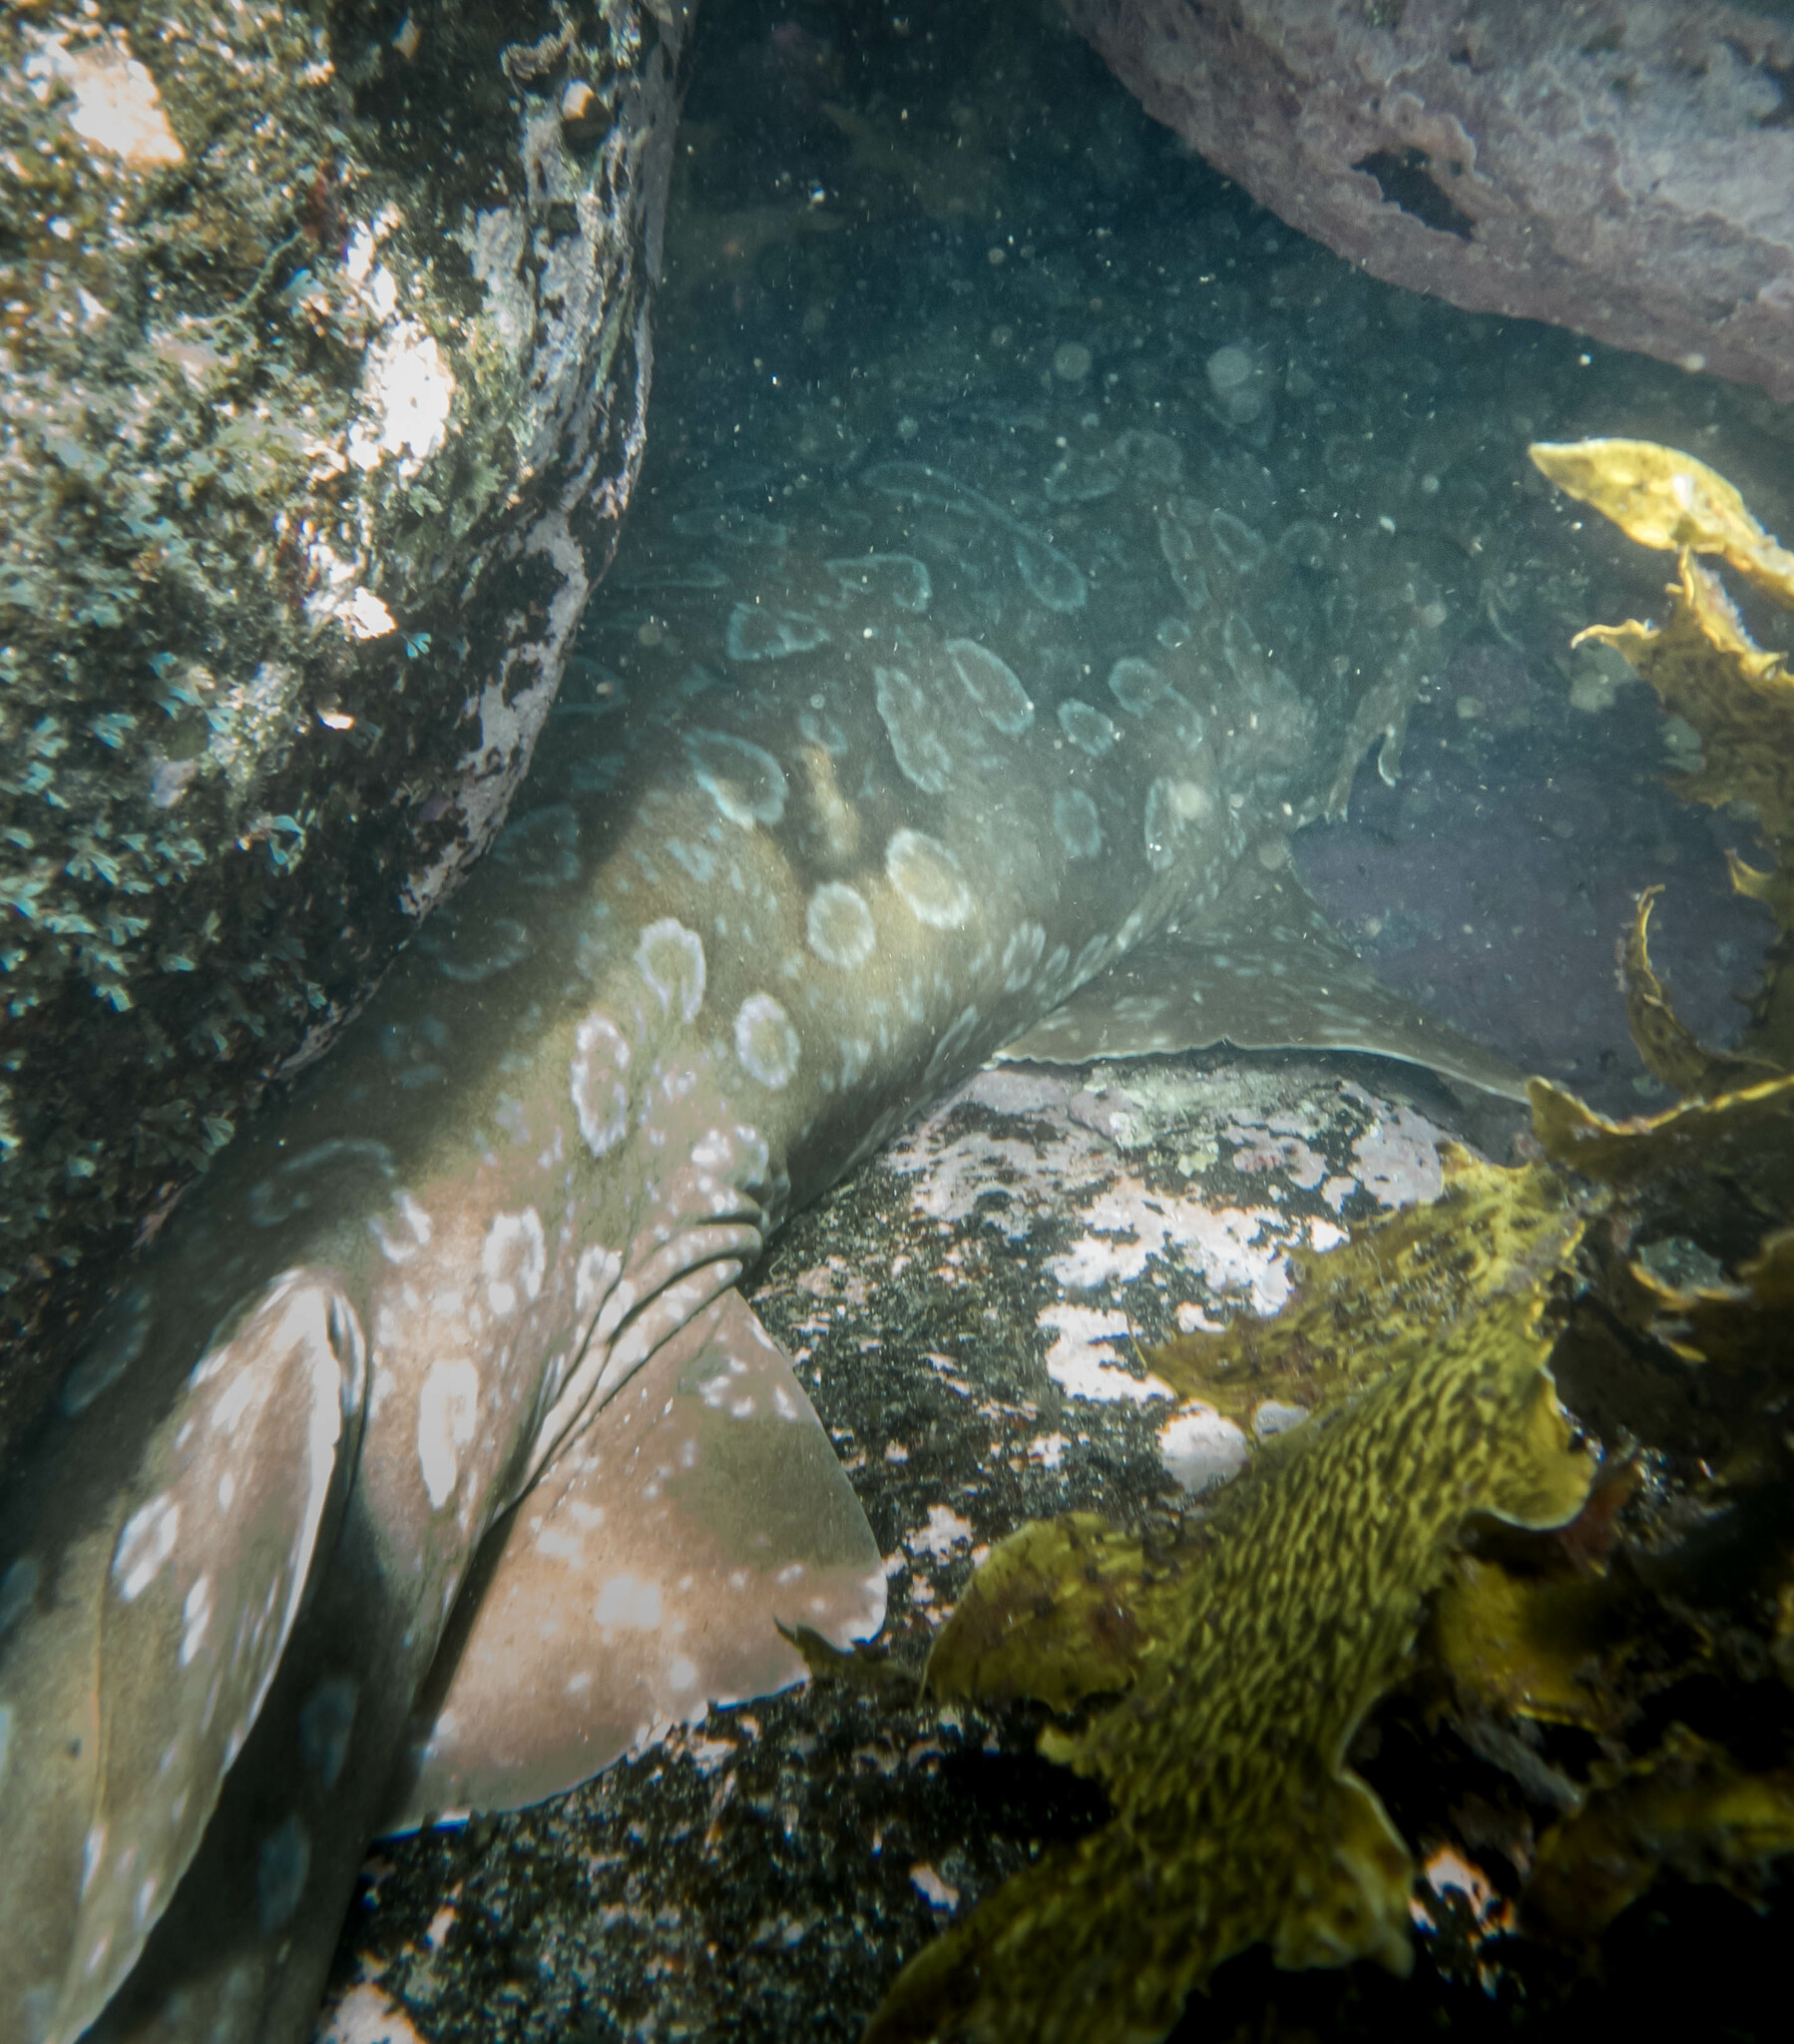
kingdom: Animalia
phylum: Chordata
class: Elasmobranchii
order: Orectolobiformes
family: Orectolobidae
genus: Orectolobus
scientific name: Orectolobus maculatus
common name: Spotted wobbegong
